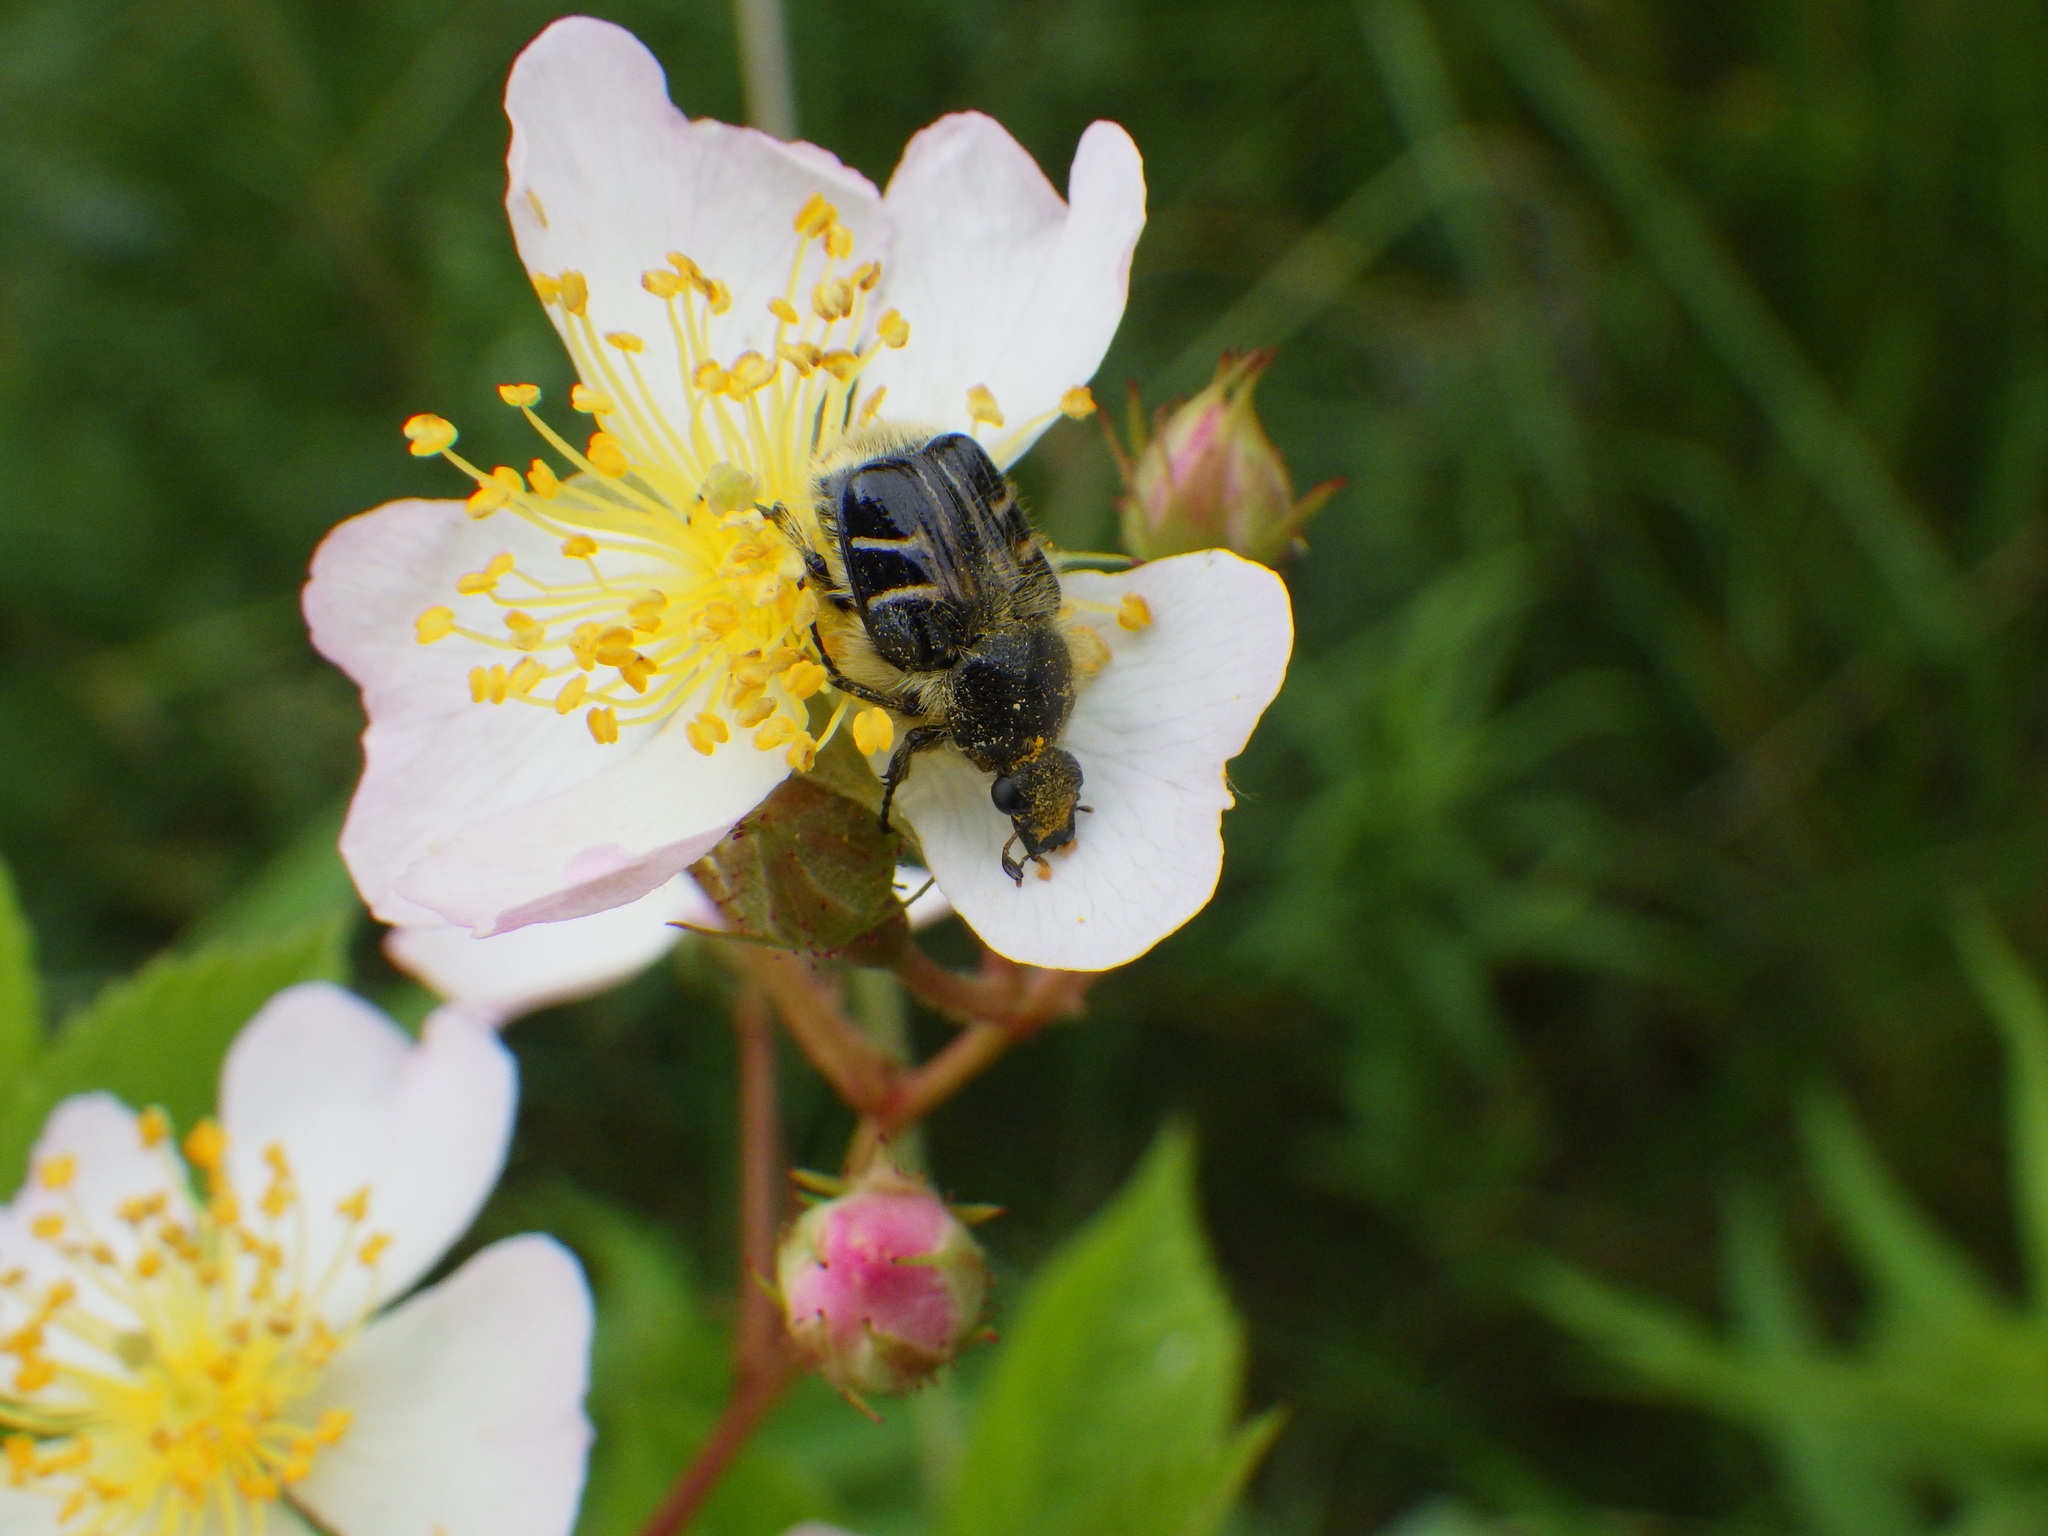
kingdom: Animalia
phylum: Arthropoda
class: Insecta
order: Coleoptera
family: Scarabaeidae
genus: Trichiotinus
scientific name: Trichiotinus assimilis
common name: Bee-mimic beetle
